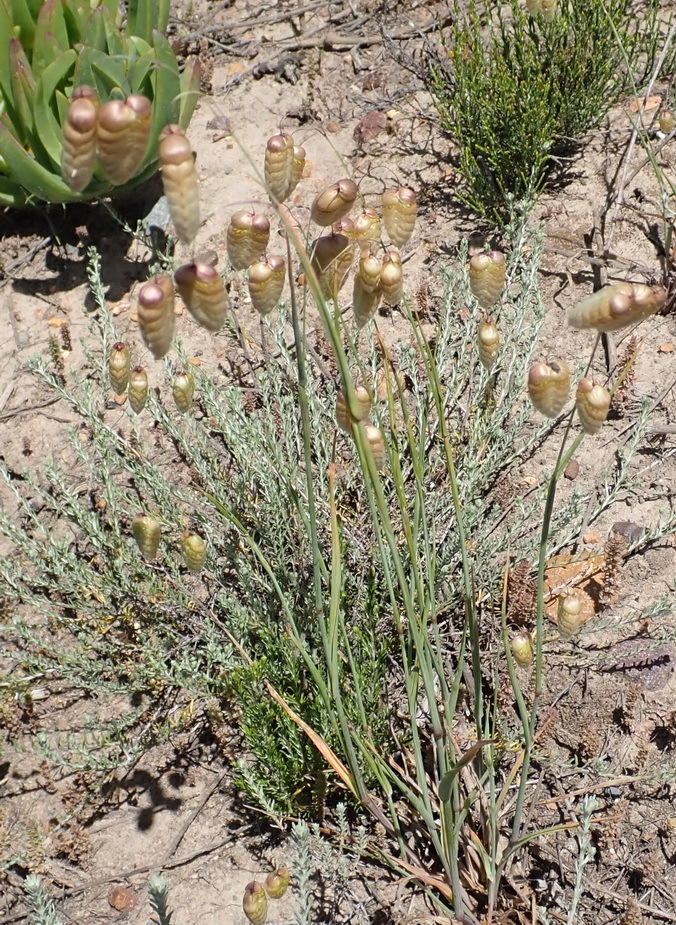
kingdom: Plantae
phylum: Tracheophyta
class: Liliopsida
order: Poales
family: Poaceae
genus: Briza
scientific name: Briza maxima
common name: Big quakinggrass
